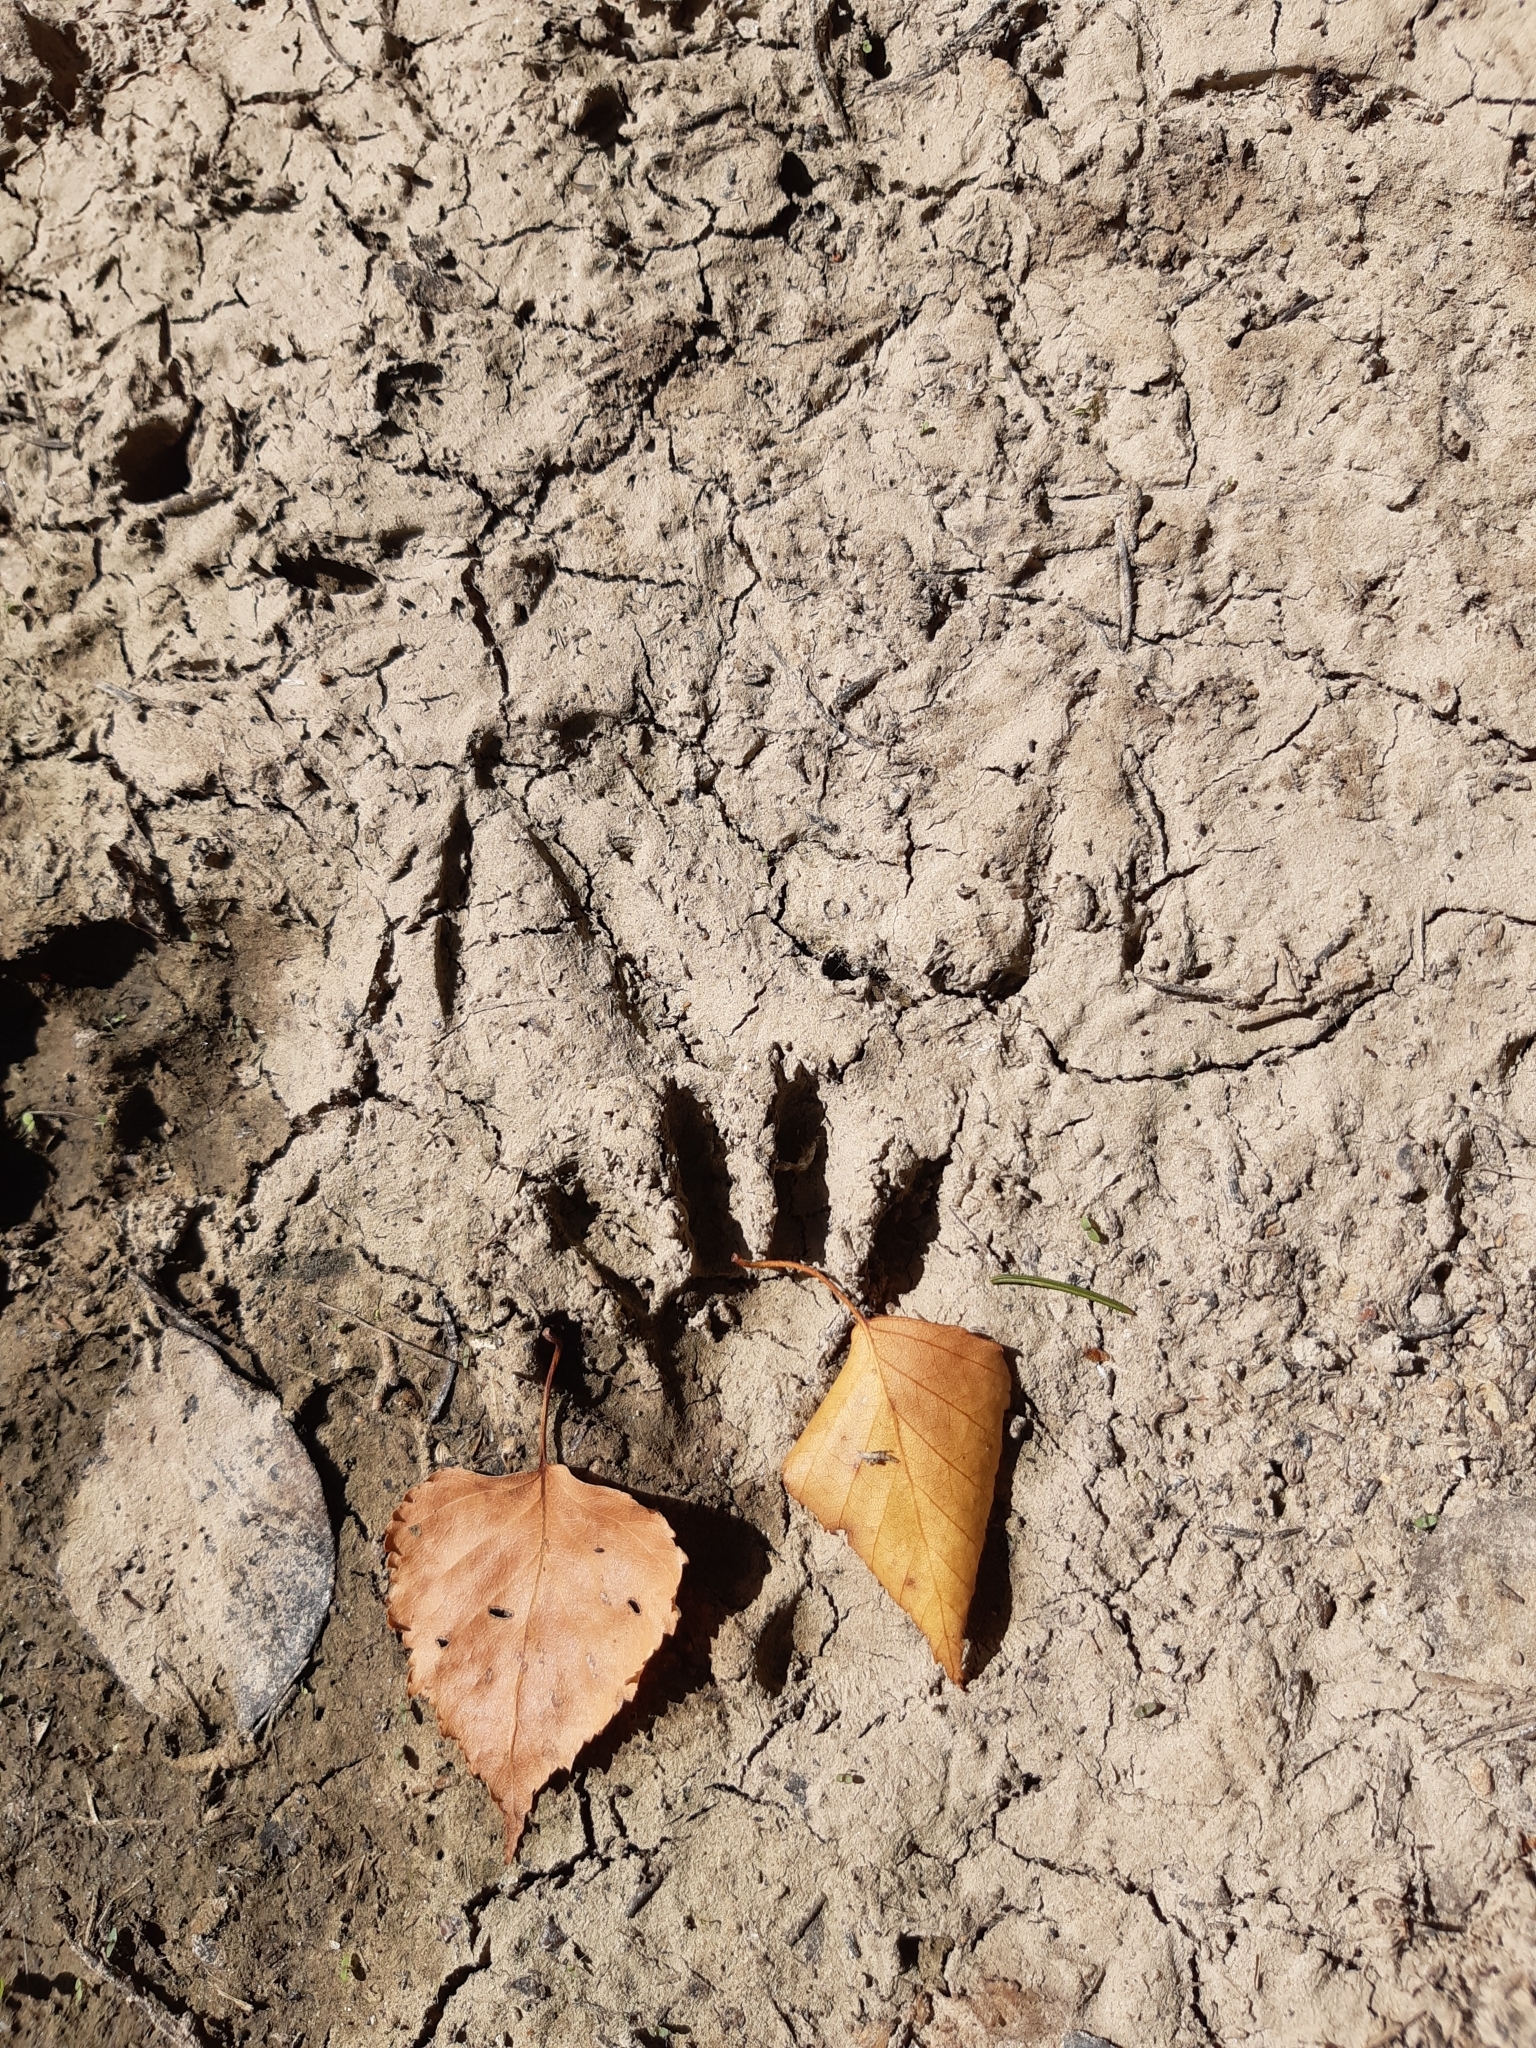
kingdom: Animalia
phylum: Chordata
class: Mammalia
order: Carnivora
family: Procyonidae
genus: Procyon
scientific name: Procyon lotor
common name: Raccoon
